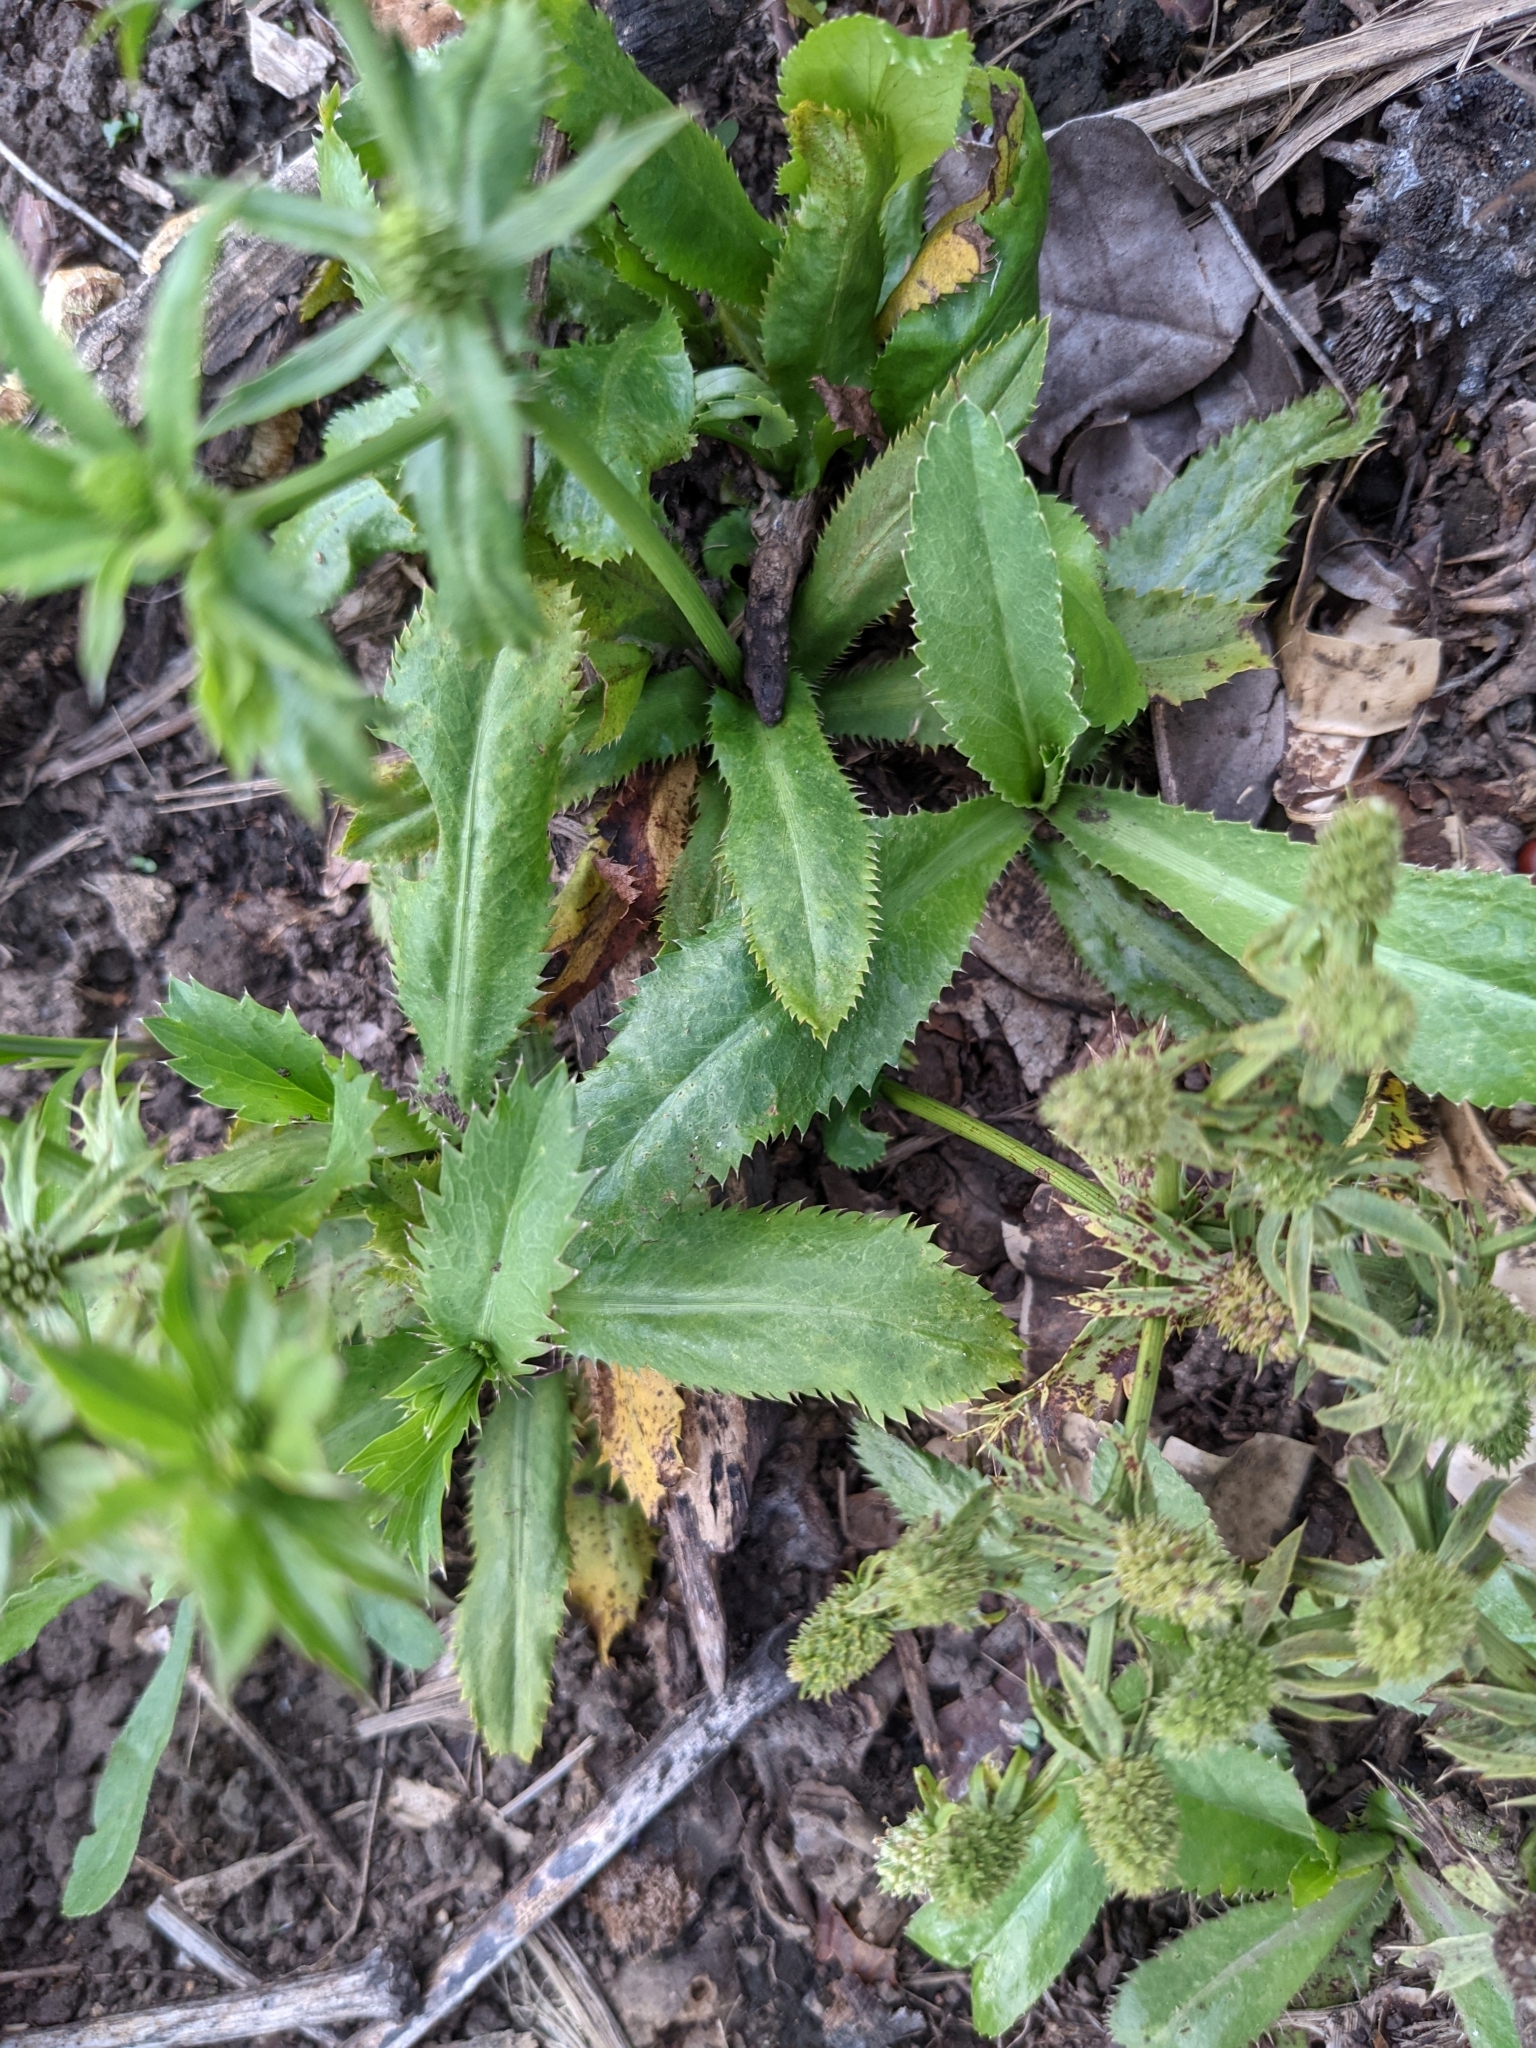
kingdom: Plantae
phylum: Tracheophyta
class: Magnoliopsida
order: Apiales
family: Apiaceae
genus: Eryngium
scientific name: Eryngium foetidum
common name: Fitweed
